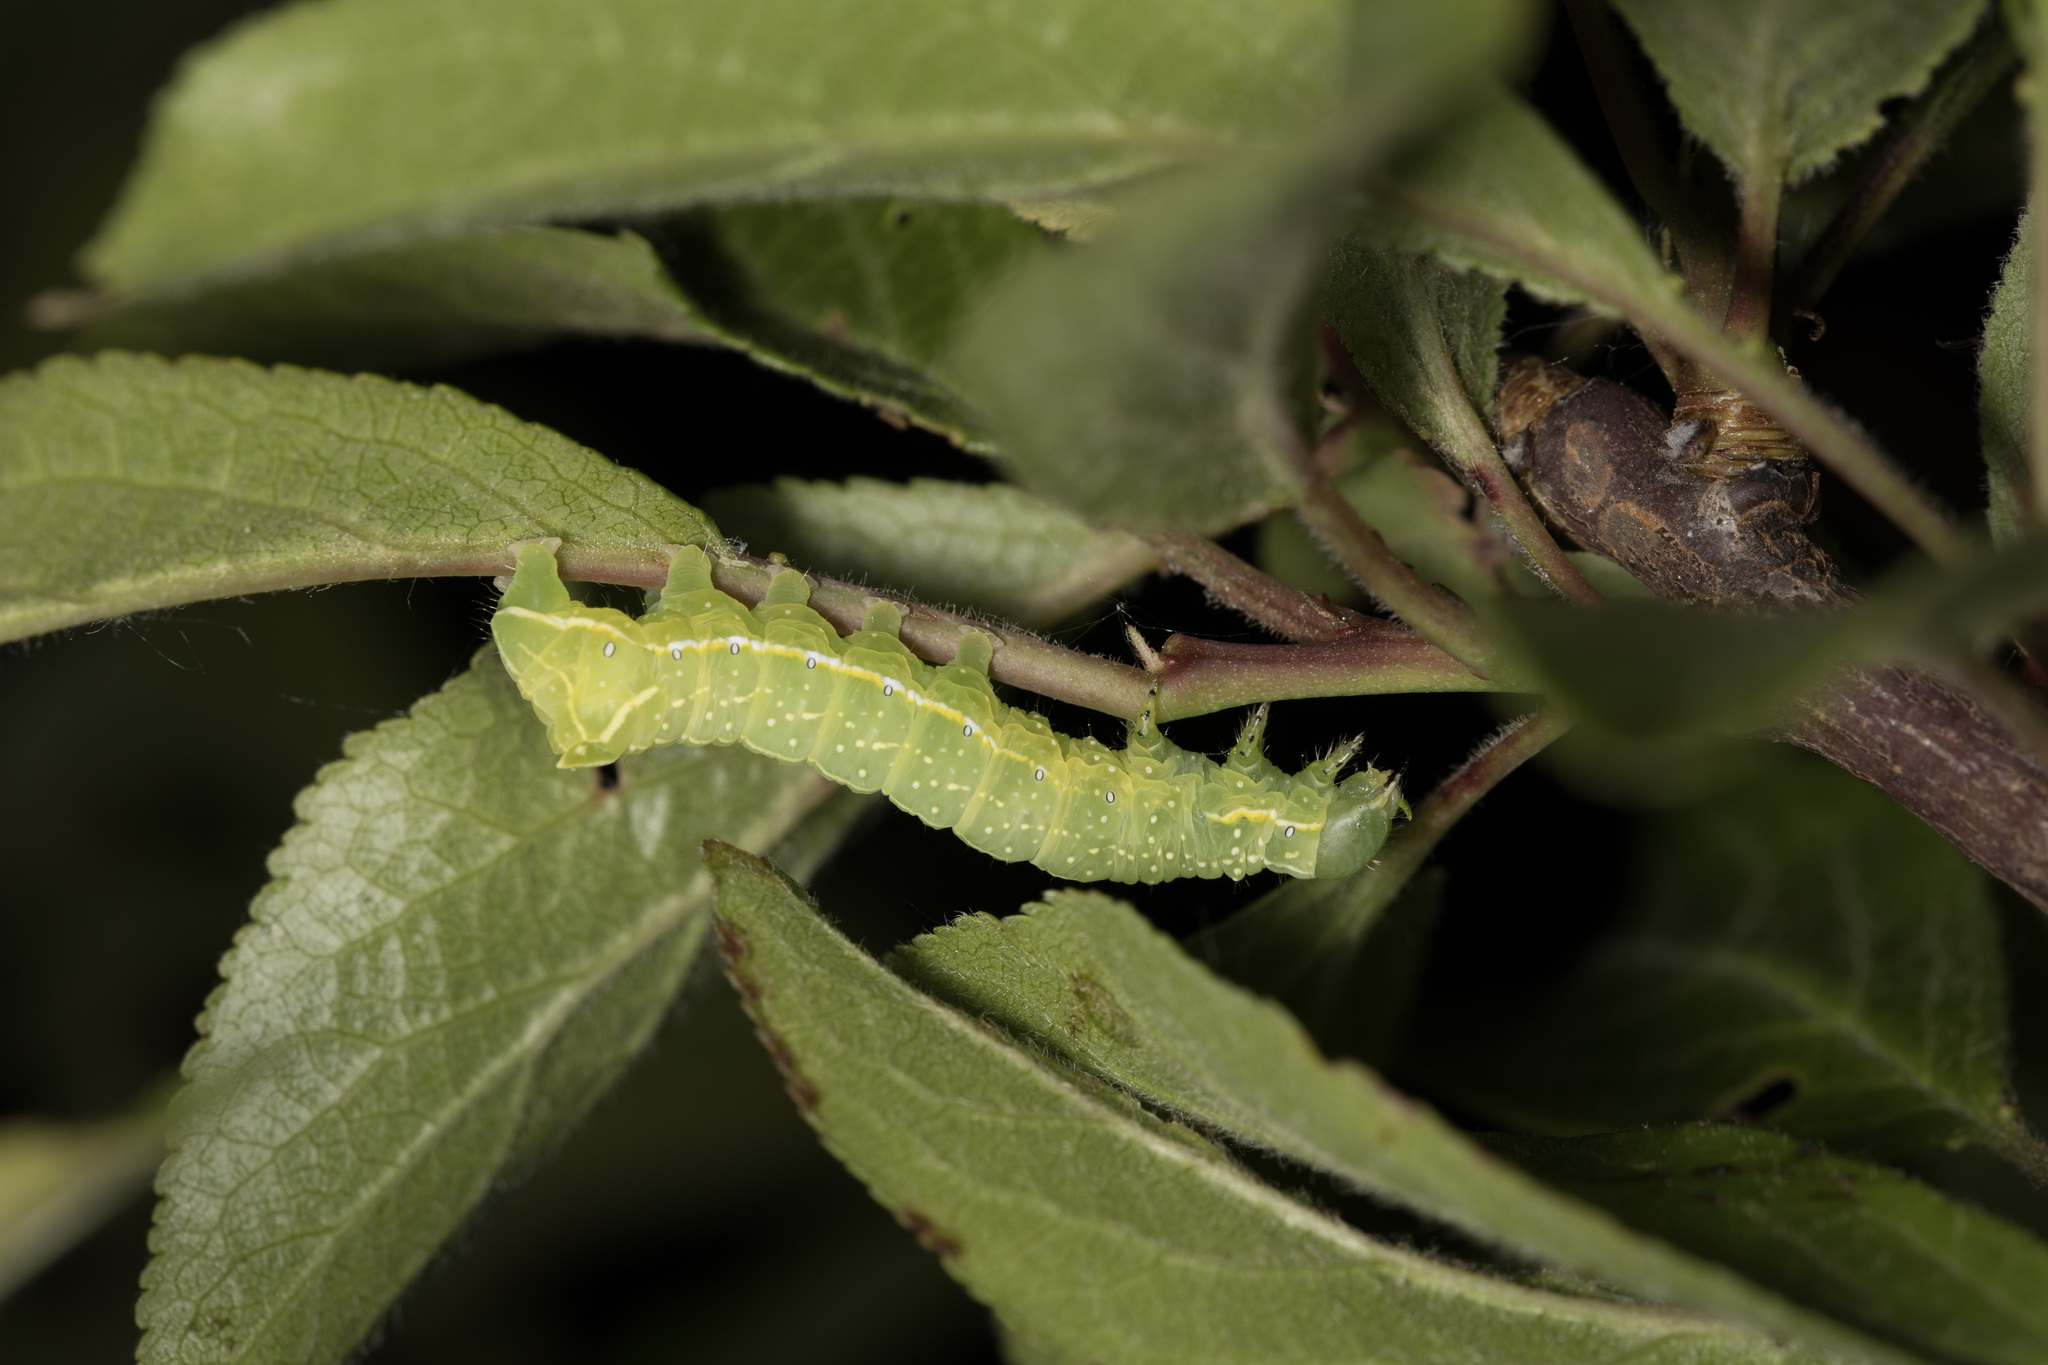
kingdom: Animalia
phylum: Arthropoda
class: Insecta
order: Lepidoptera
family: Noctuidae
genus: Amphipyra
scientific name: Amphipyra pyramidea
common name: Copper underwing
